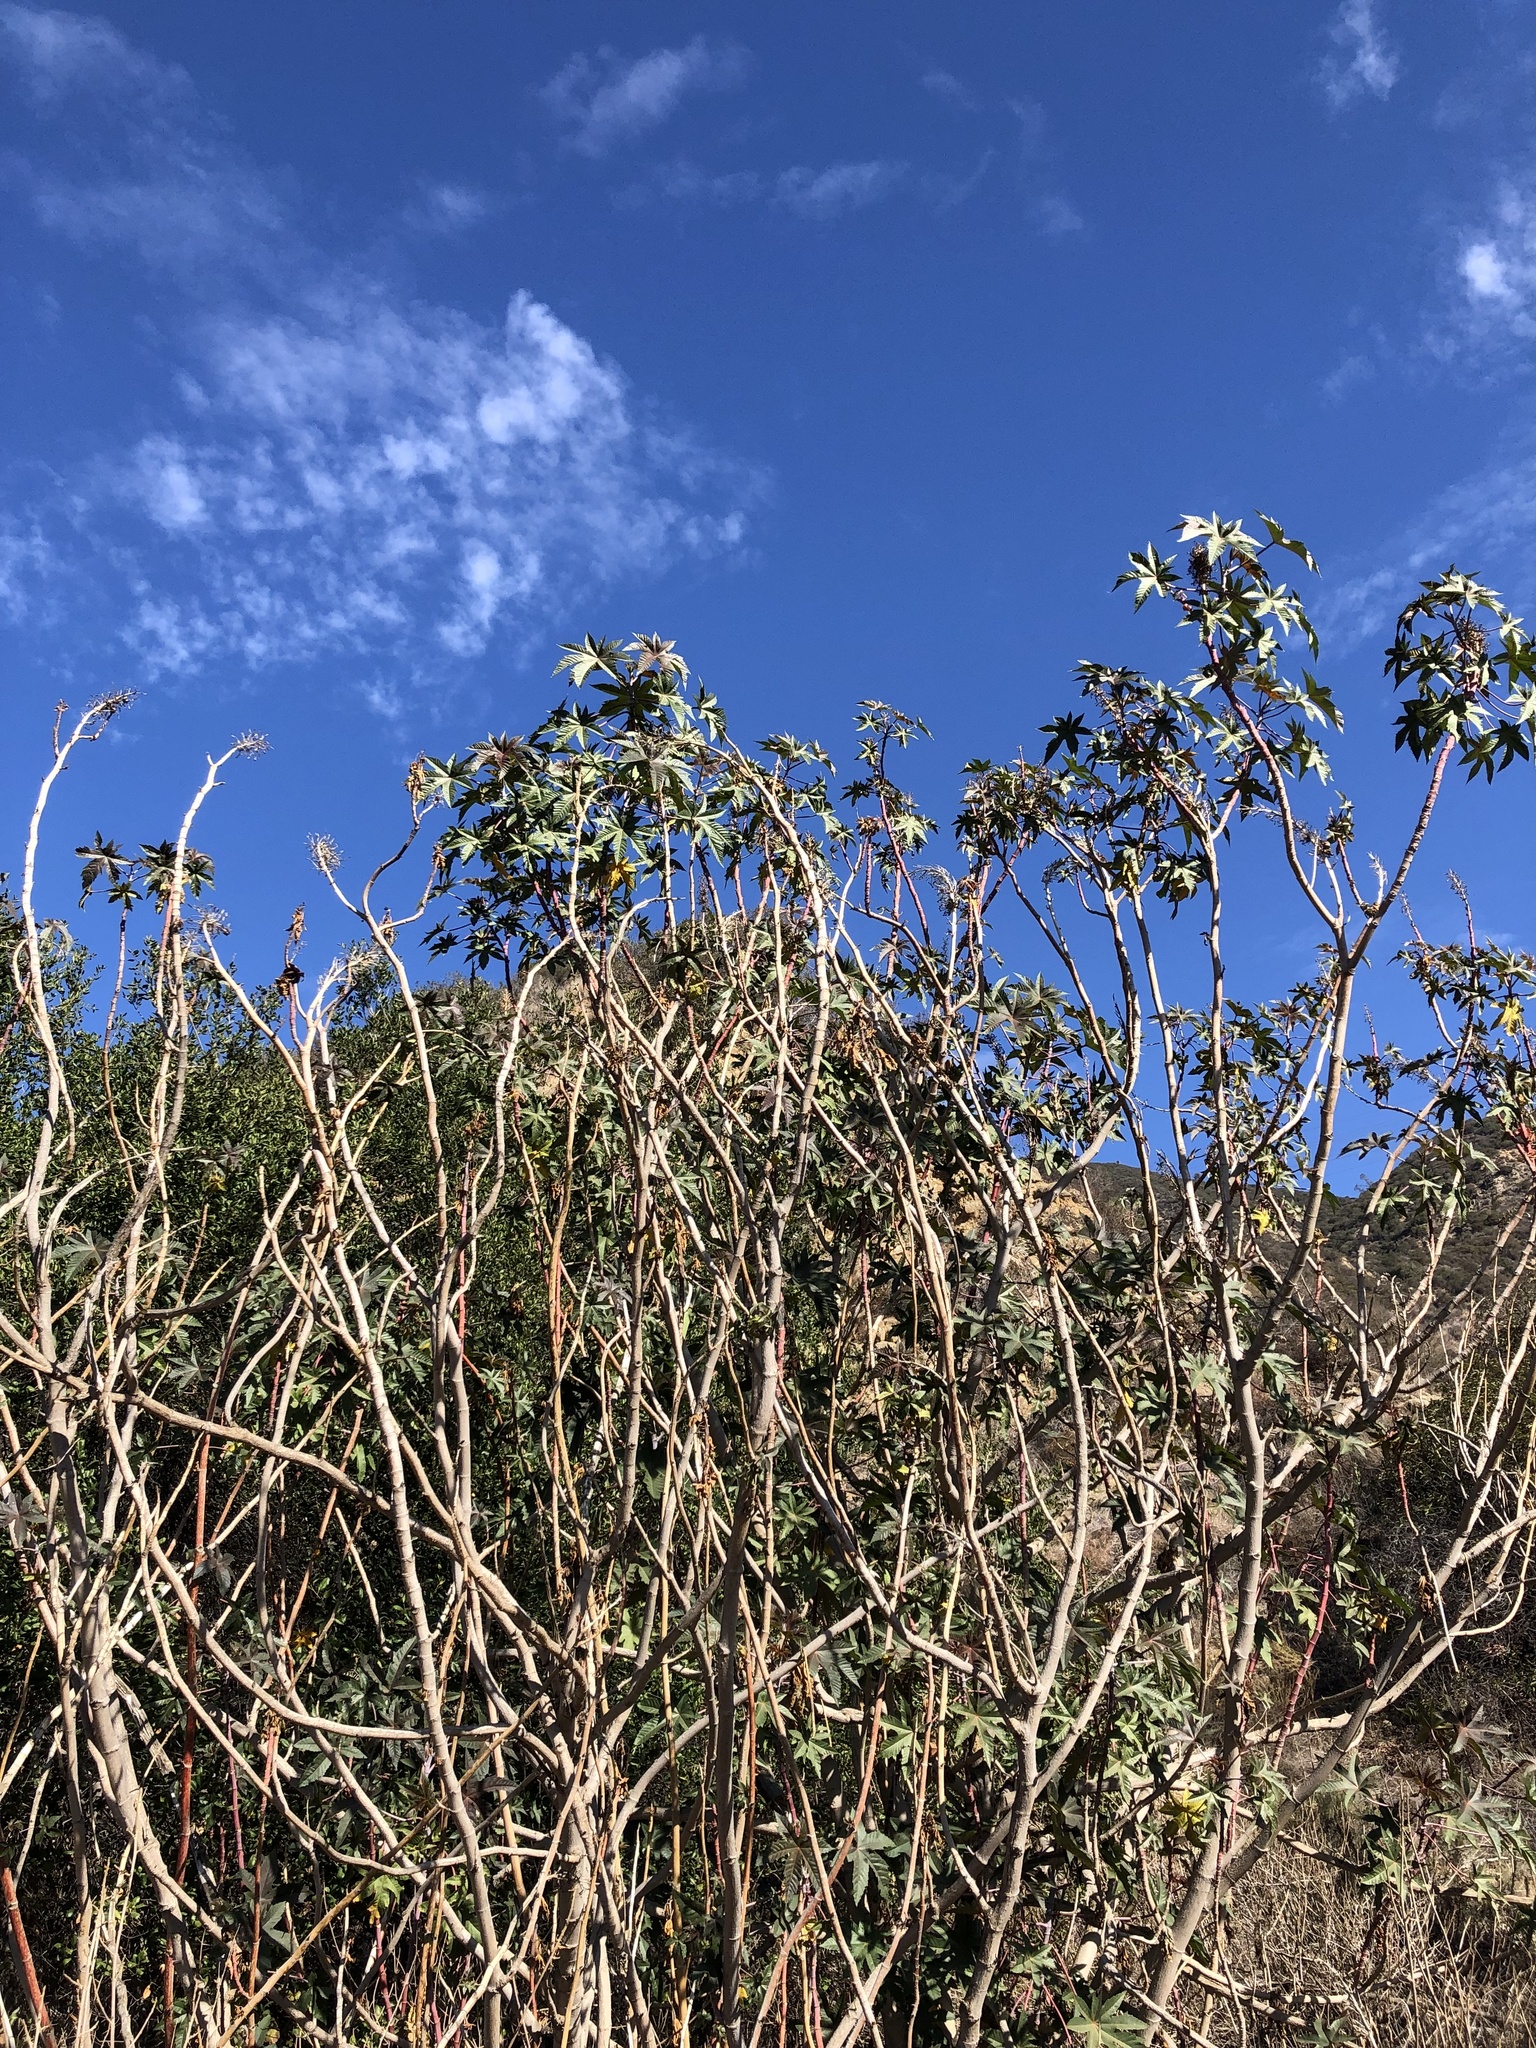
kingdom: Plantae
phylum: Tracheophyta
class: Magnoliopsida
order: Malpighiales
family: Euphorbiaceae
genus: Ricinus
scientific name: Ricinus communis
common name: Castor-oil-plant
